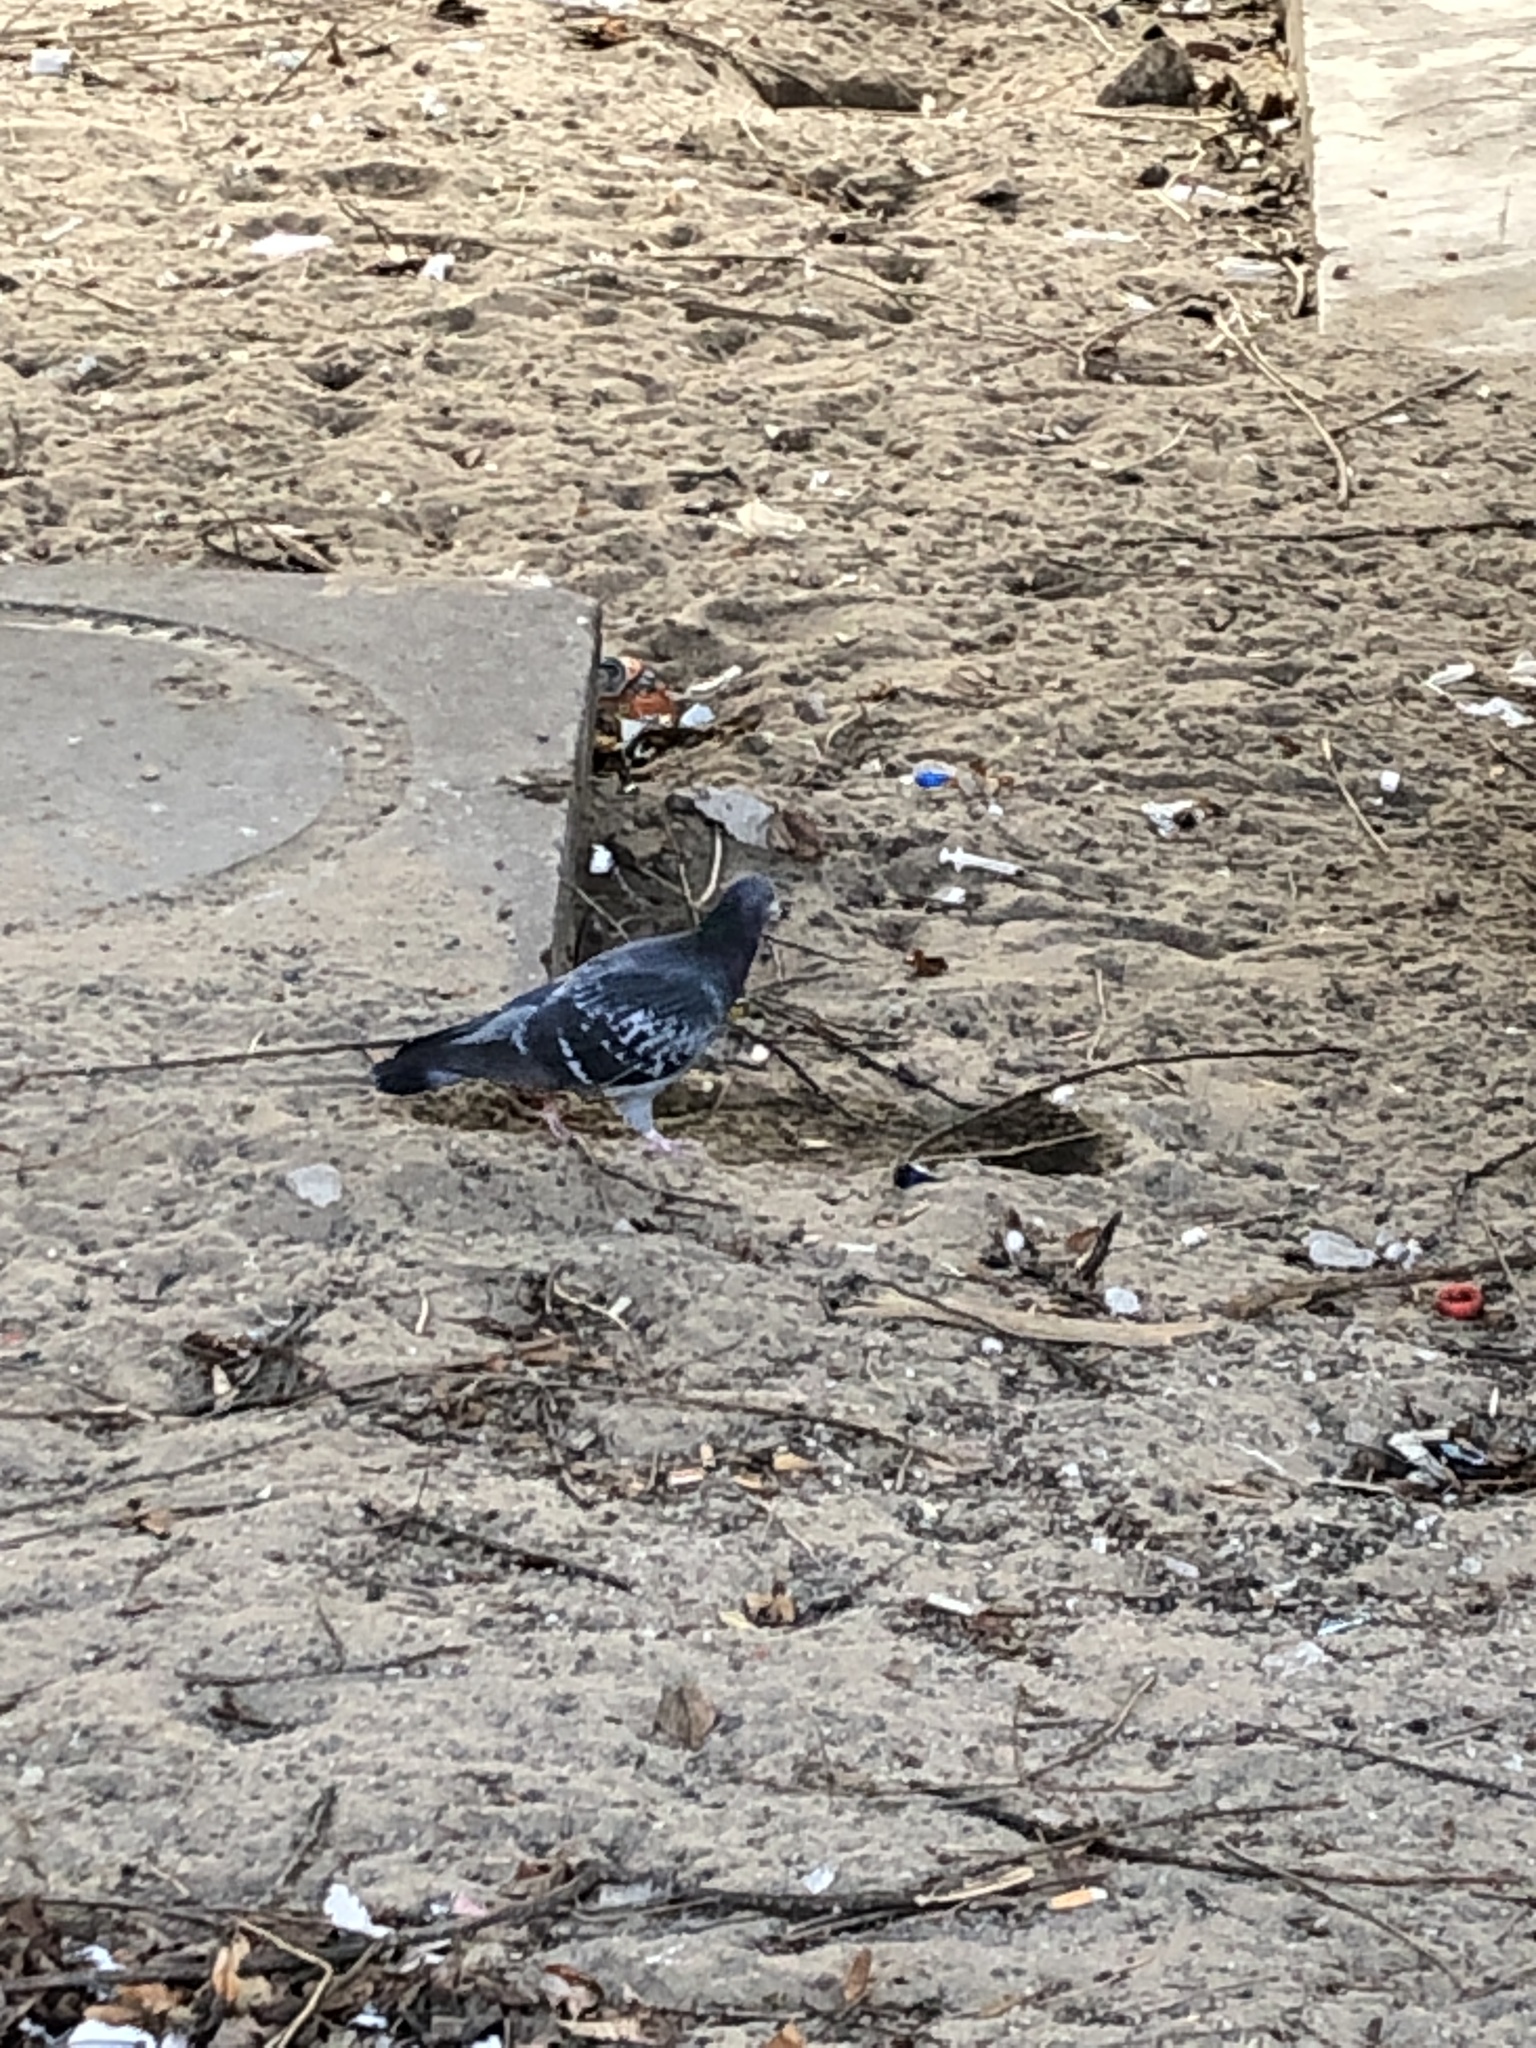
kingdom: Animalia
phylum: Chordata
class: Aves
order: Columbiformes
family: Columbidae
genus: Columba
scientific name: Columba livia
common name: Rock pigeon
